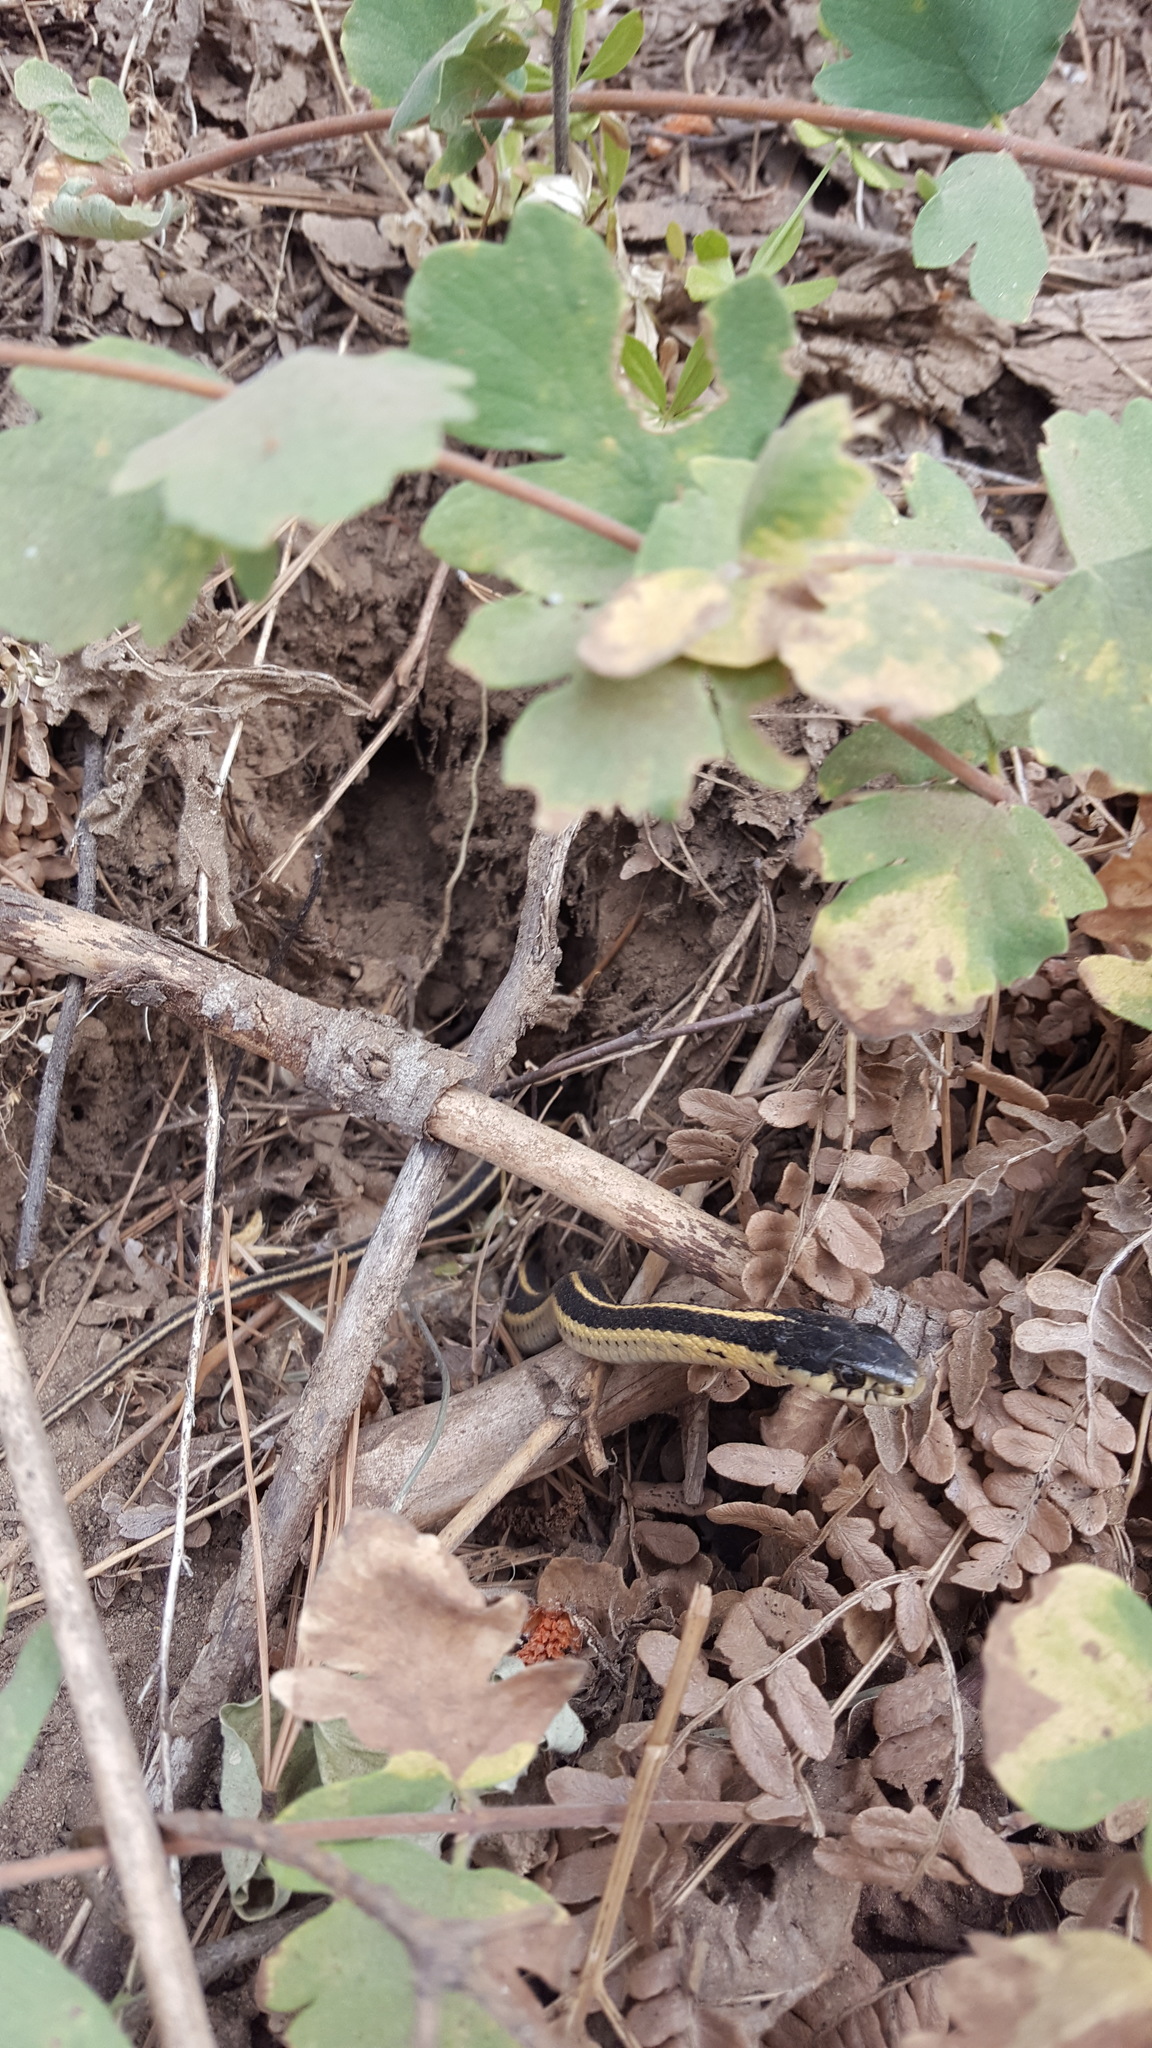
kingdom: Animalia
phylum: Chordata
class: Squamata
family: Colubridae
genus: Thamnophis
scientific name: Thamnophis elegans
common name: Western terrestrial garter snake
